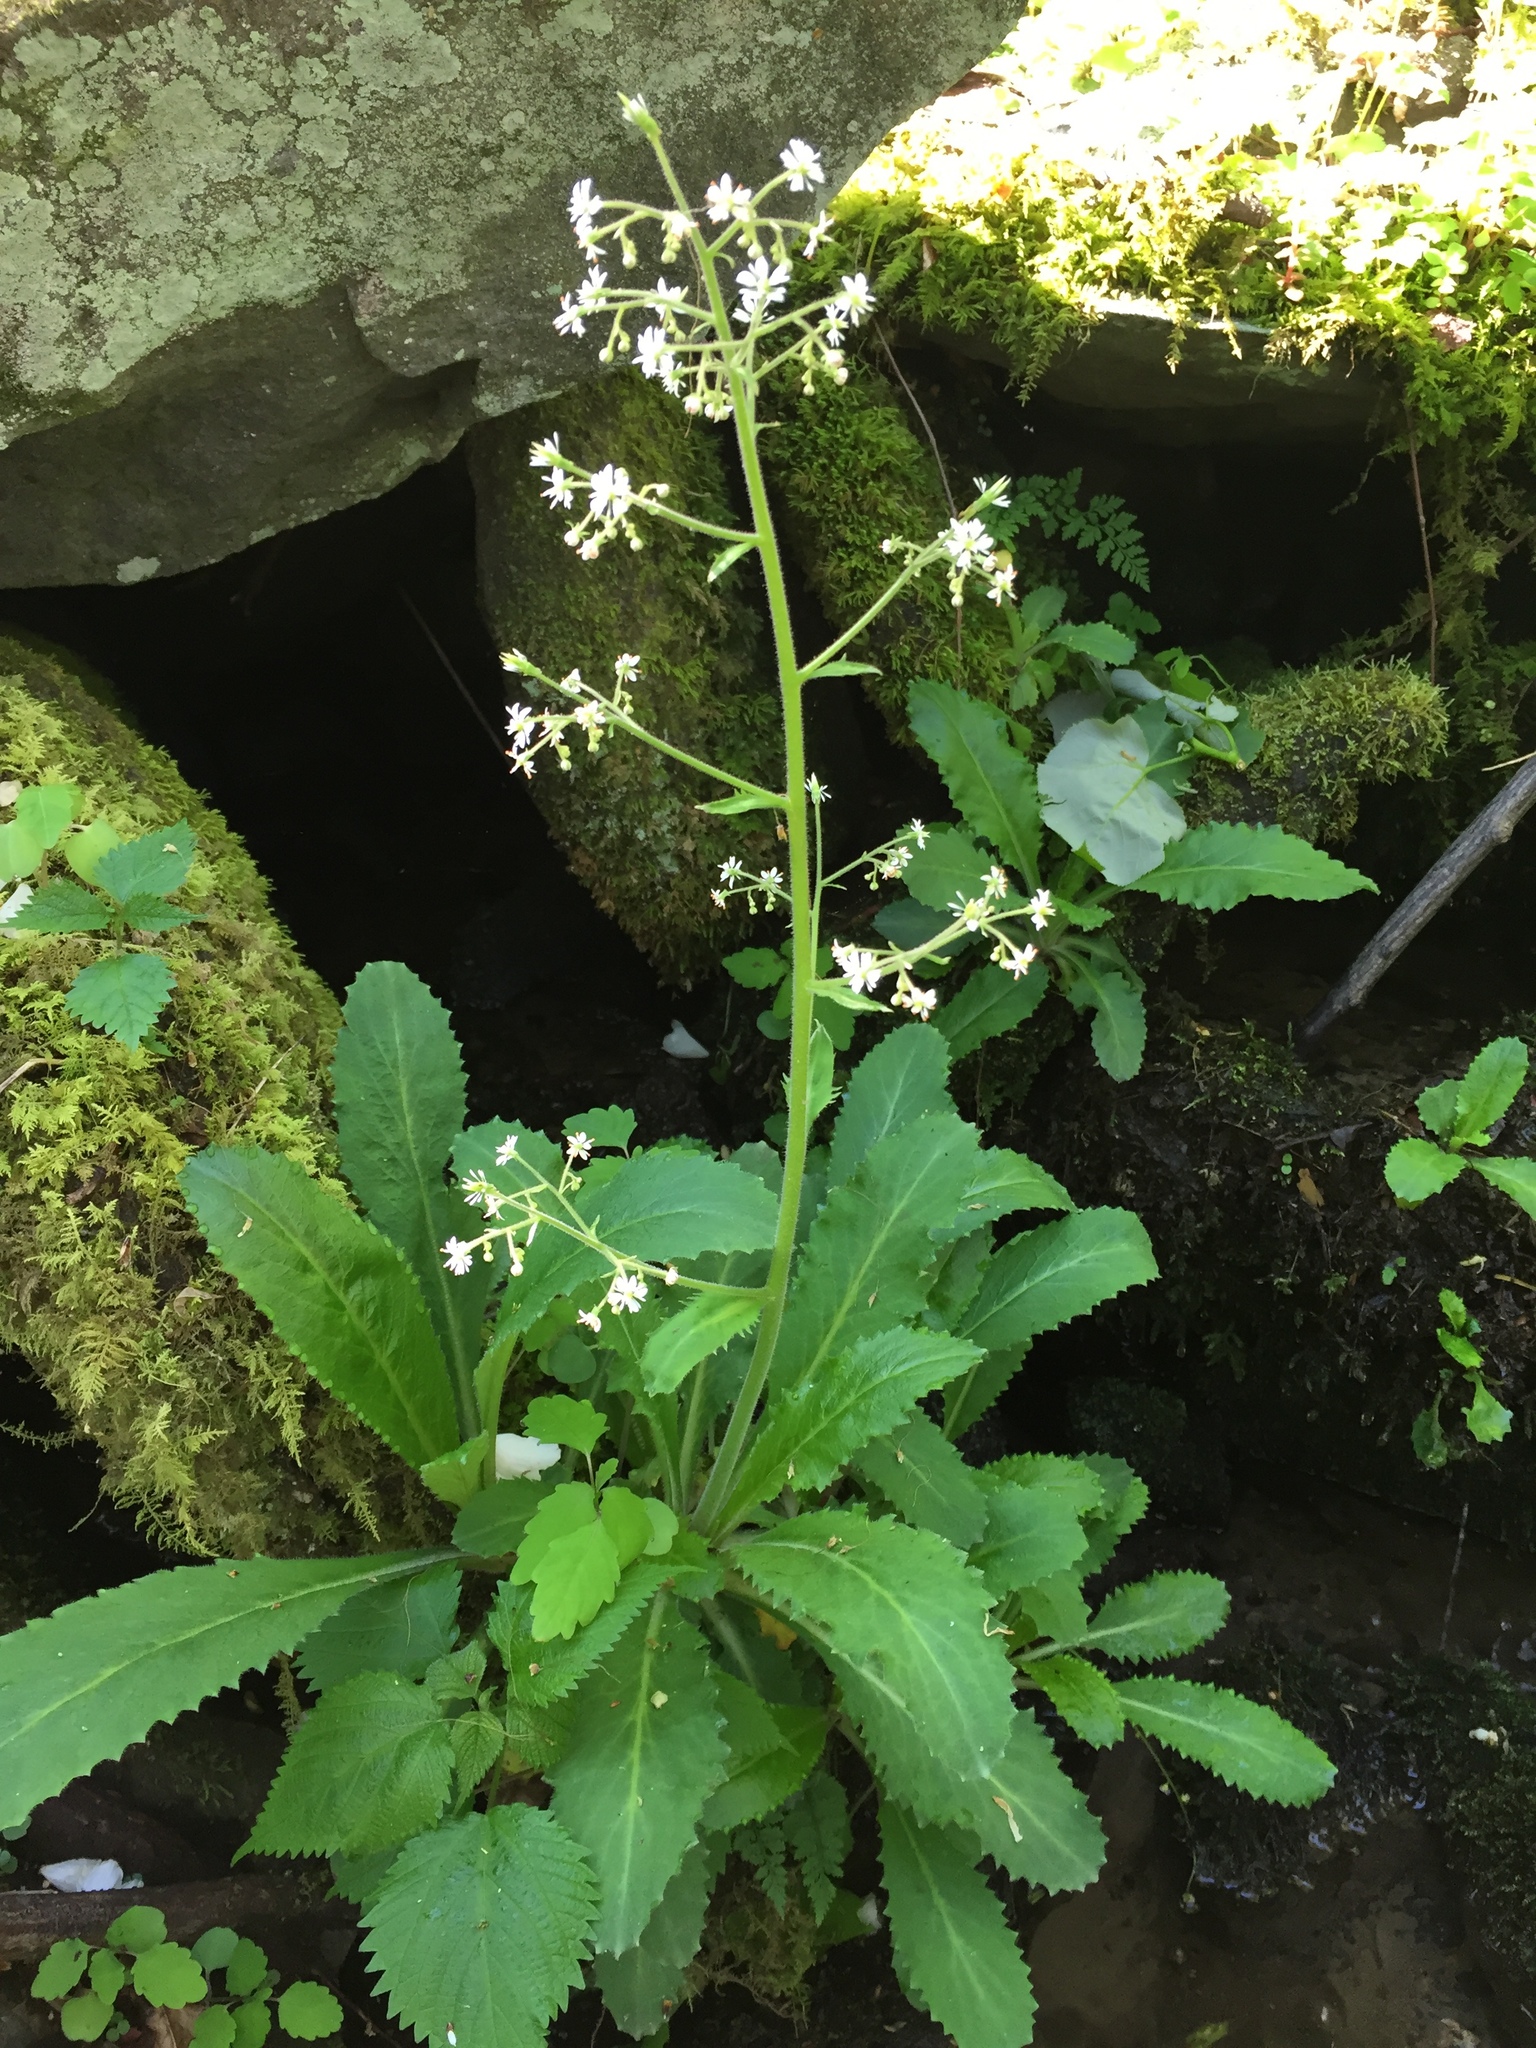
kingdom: Plantae
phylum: Tracheophyta
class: Magnoliopsida
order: Saxifragales
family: Saxifragaceae
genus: Micranthes
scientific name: Micranthes micranthidifolia
